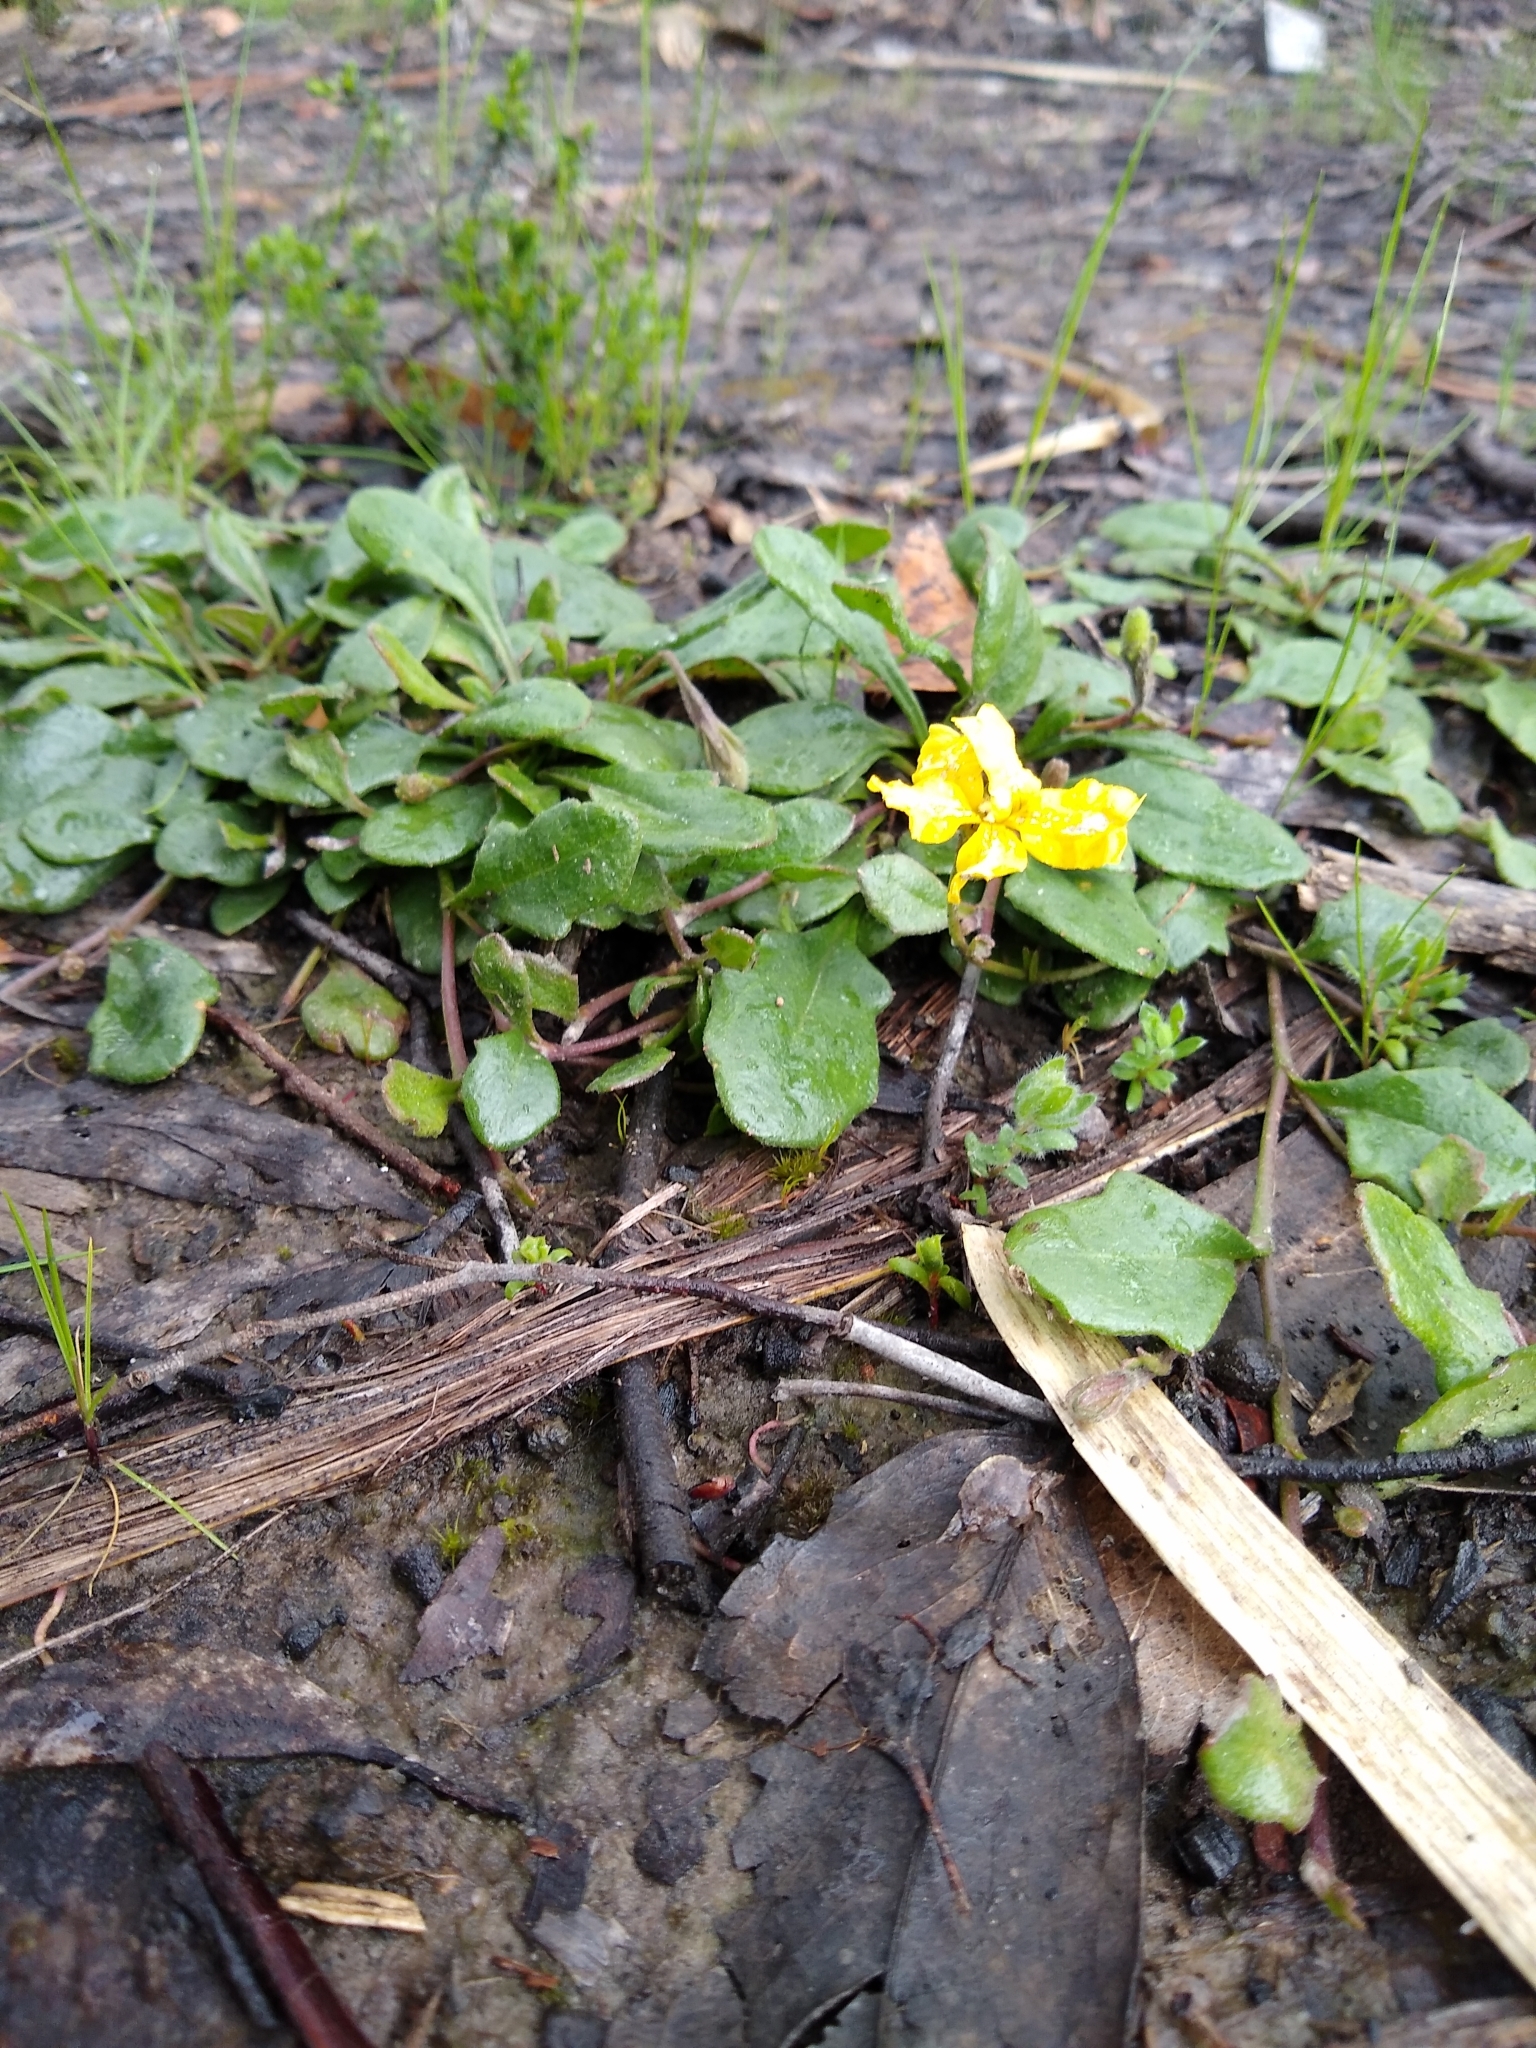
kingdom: Plantae
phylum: Tracheophyta
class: Magnoliopsida
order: Asterales
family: Goodeniaceae
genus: Goodenia
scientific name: Goodenia lanata
